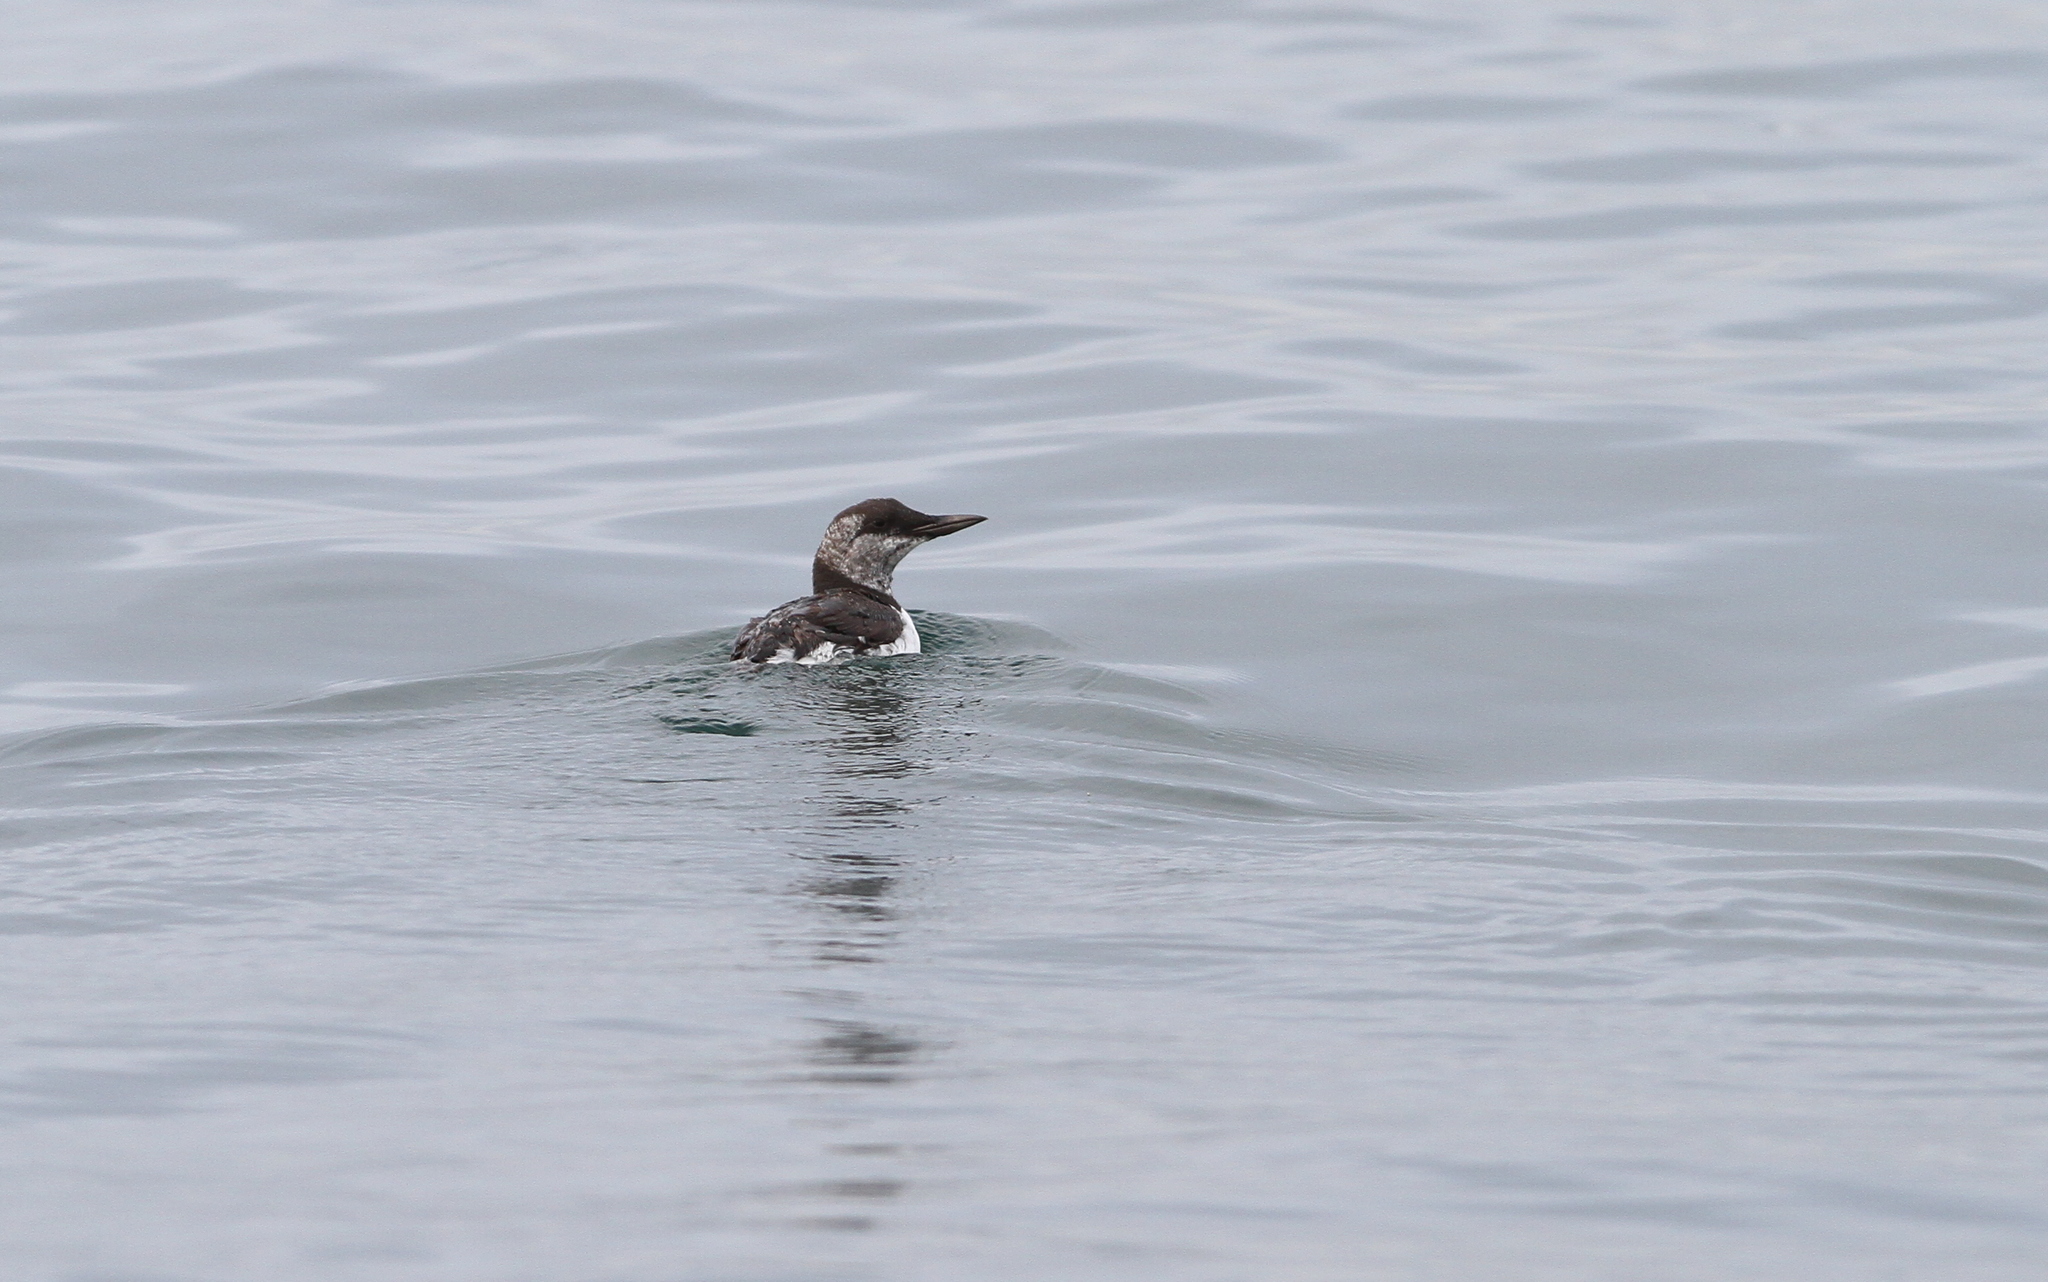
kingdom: Animalia
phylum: Chordata
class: Aves
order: Charadriiformes
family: Alcidae
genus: Uria
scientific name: Uria aalge
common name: Common murre
